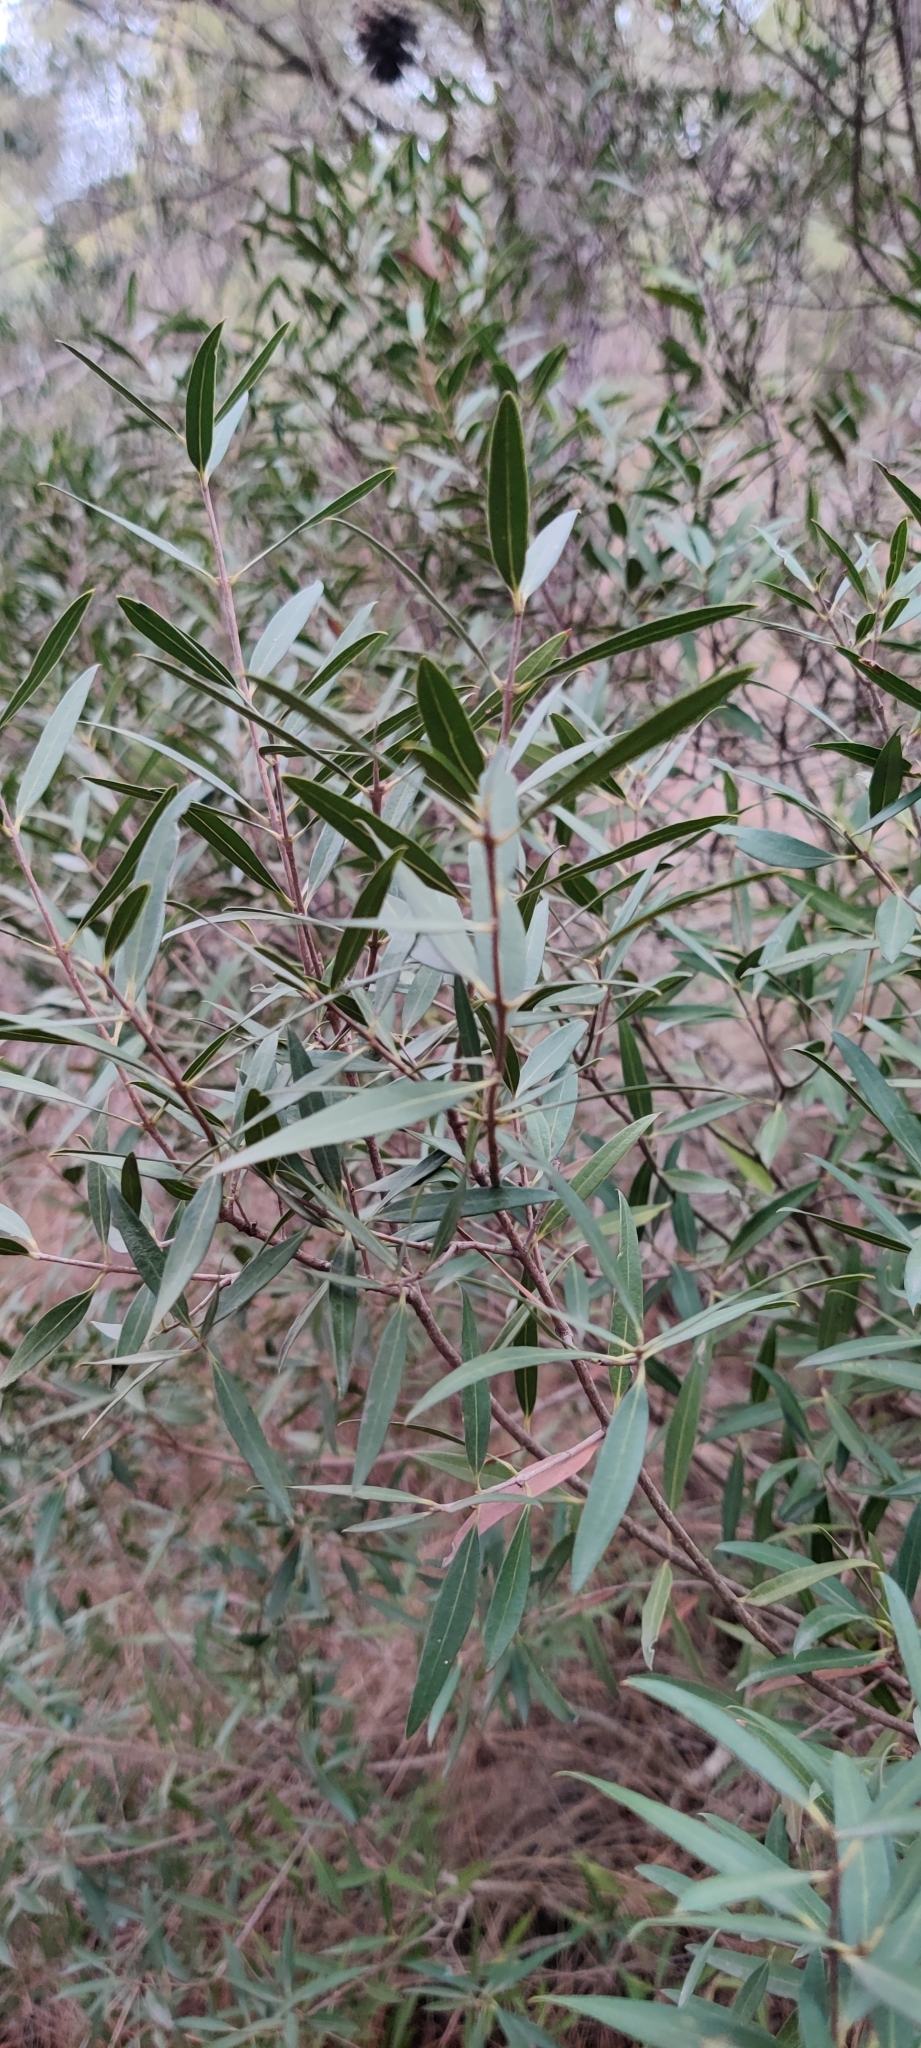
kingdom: Plantae
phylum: Tracheophyta
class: Magnoliopsida
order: Lamiales
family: Oleaceae
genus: Phillyrea
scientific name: Phillyrea angustifolia
